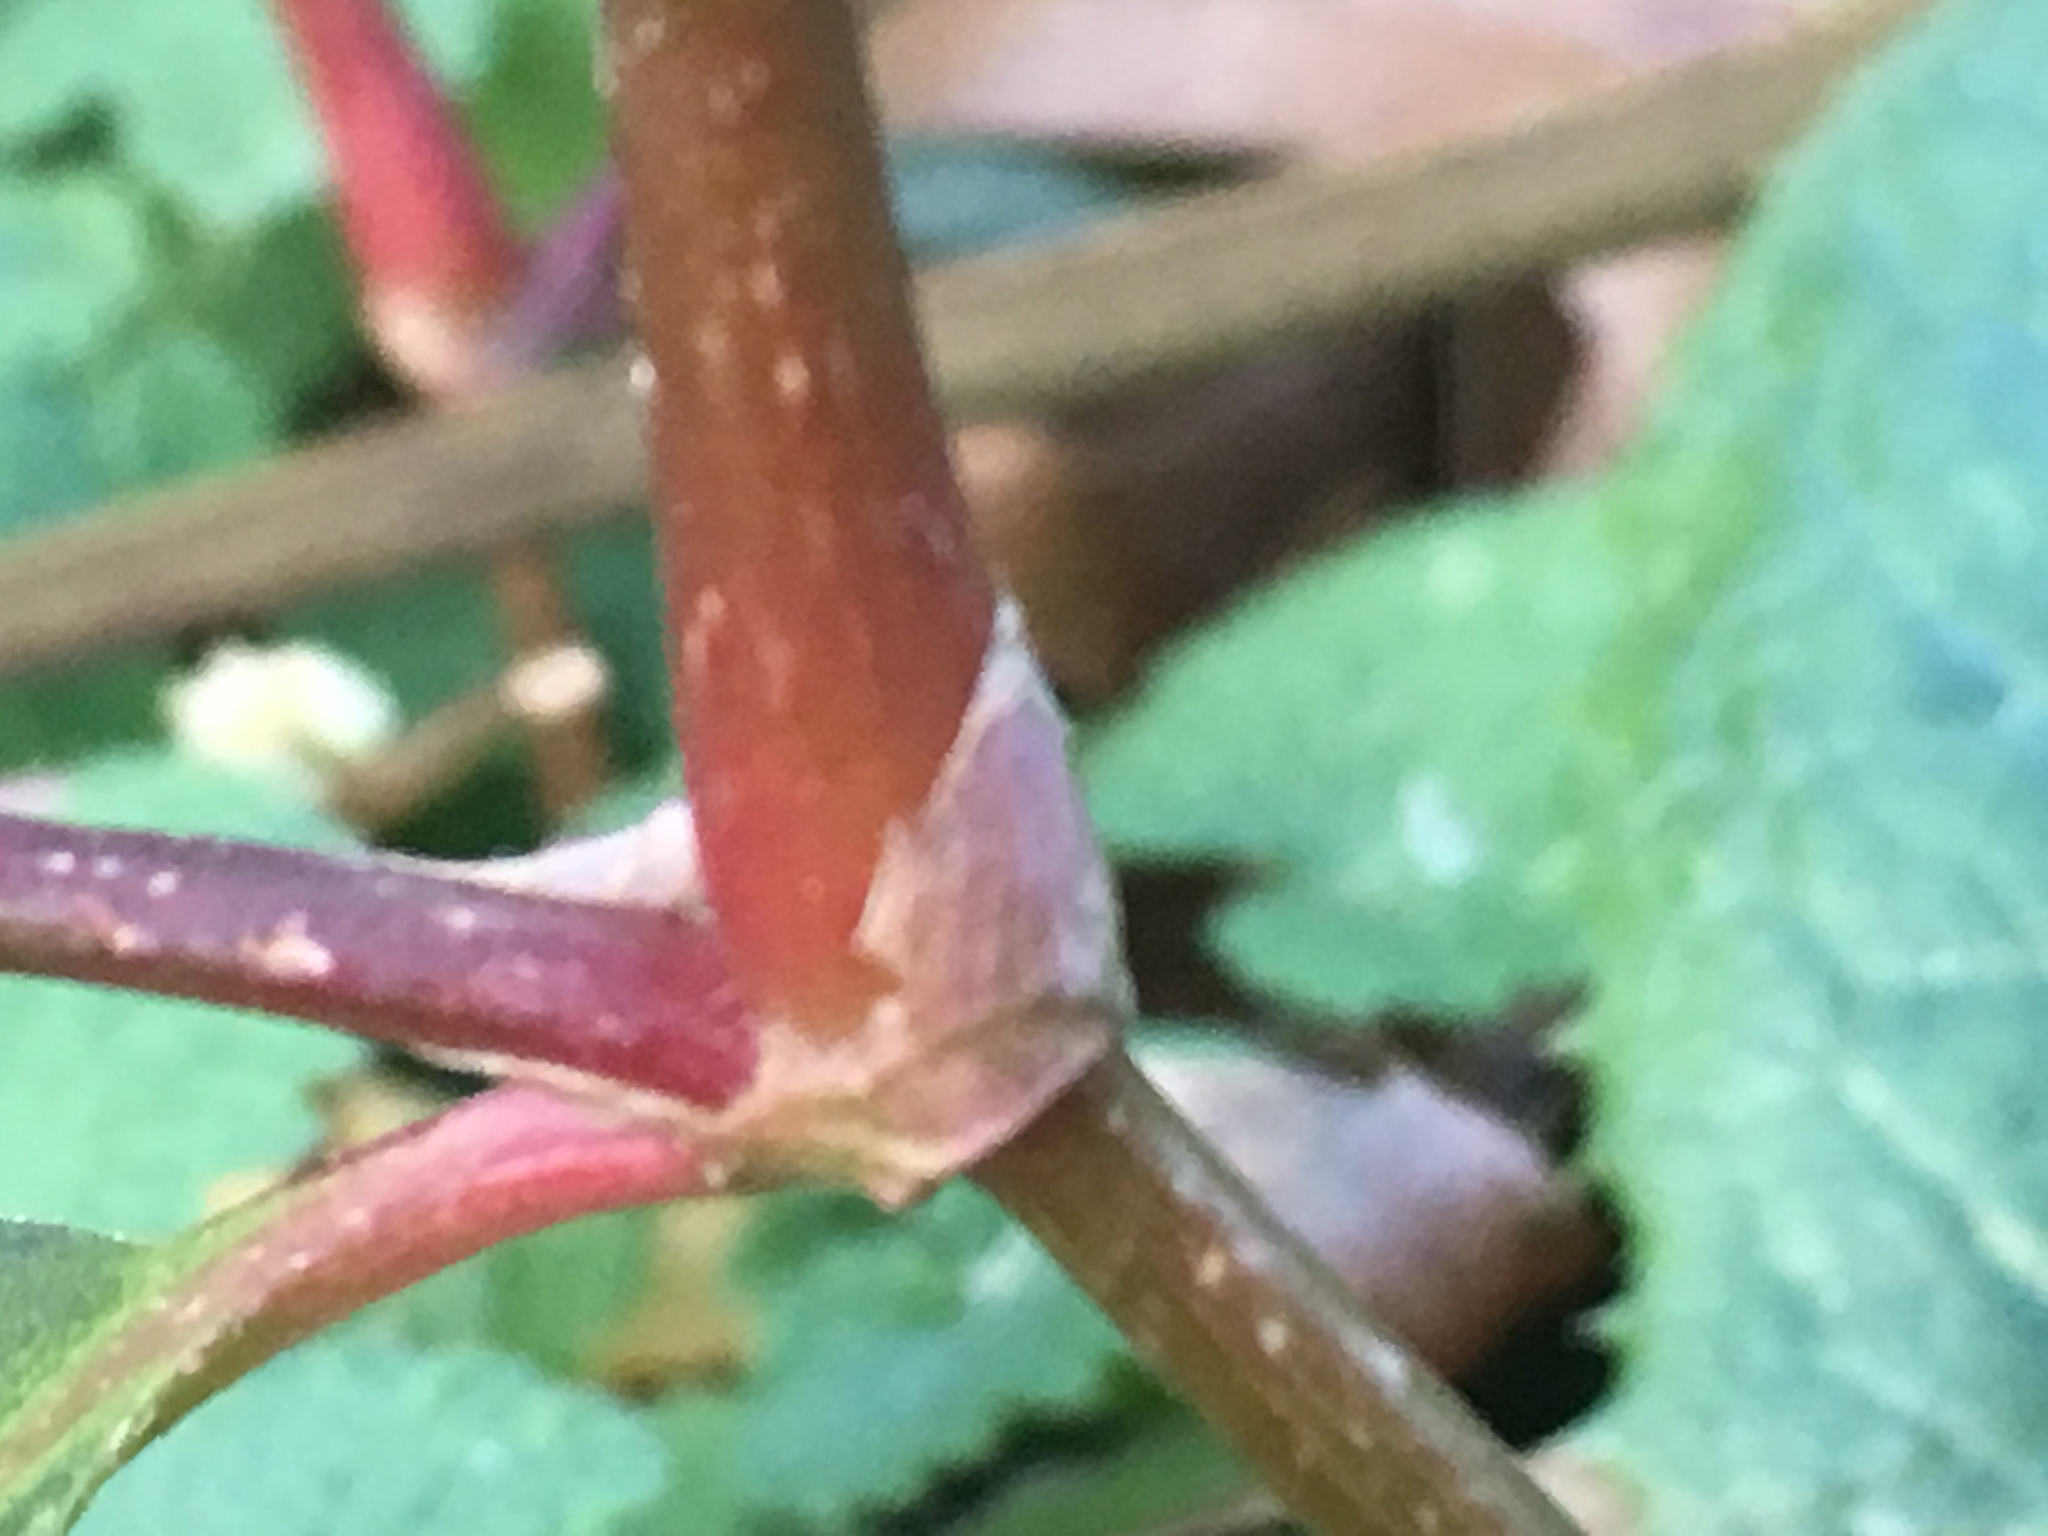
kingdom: Plantae
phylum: Tracheophyta
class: Magnoliopsida
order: Caryophyllales
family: Polygonaceae
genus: Persicaria
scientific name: Persicaria maculosa
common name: Redshank
